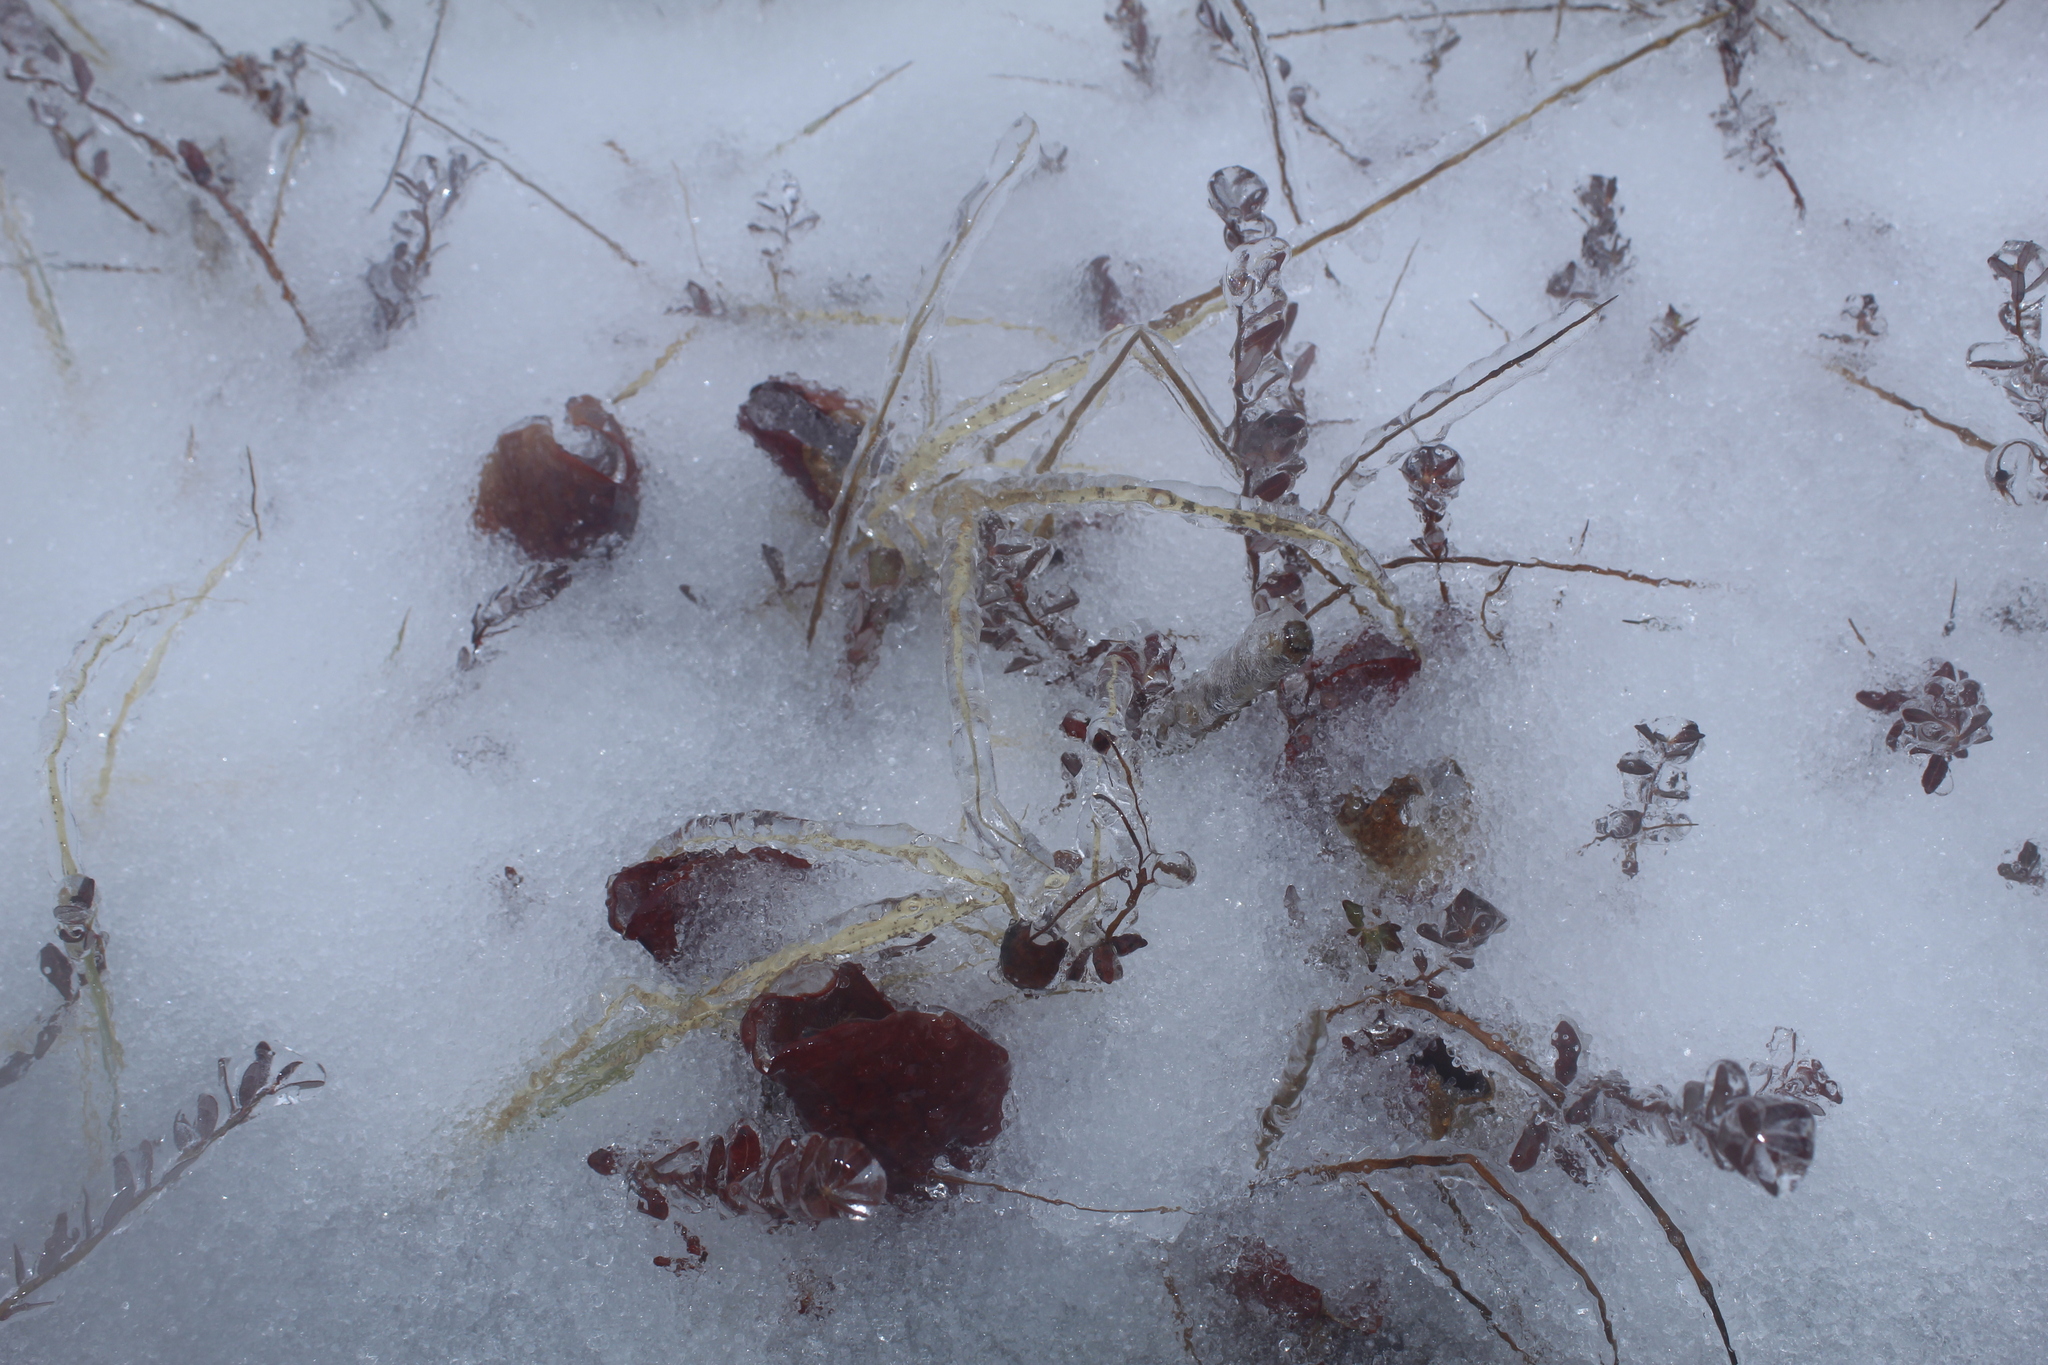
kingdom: Plantae
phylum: Tracheophyta
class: Magnoliopsida
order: Ericales
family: Sarraceniaceae
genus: Sarracenia
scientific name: Sarracenia purpurea
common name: Pitcherplant
